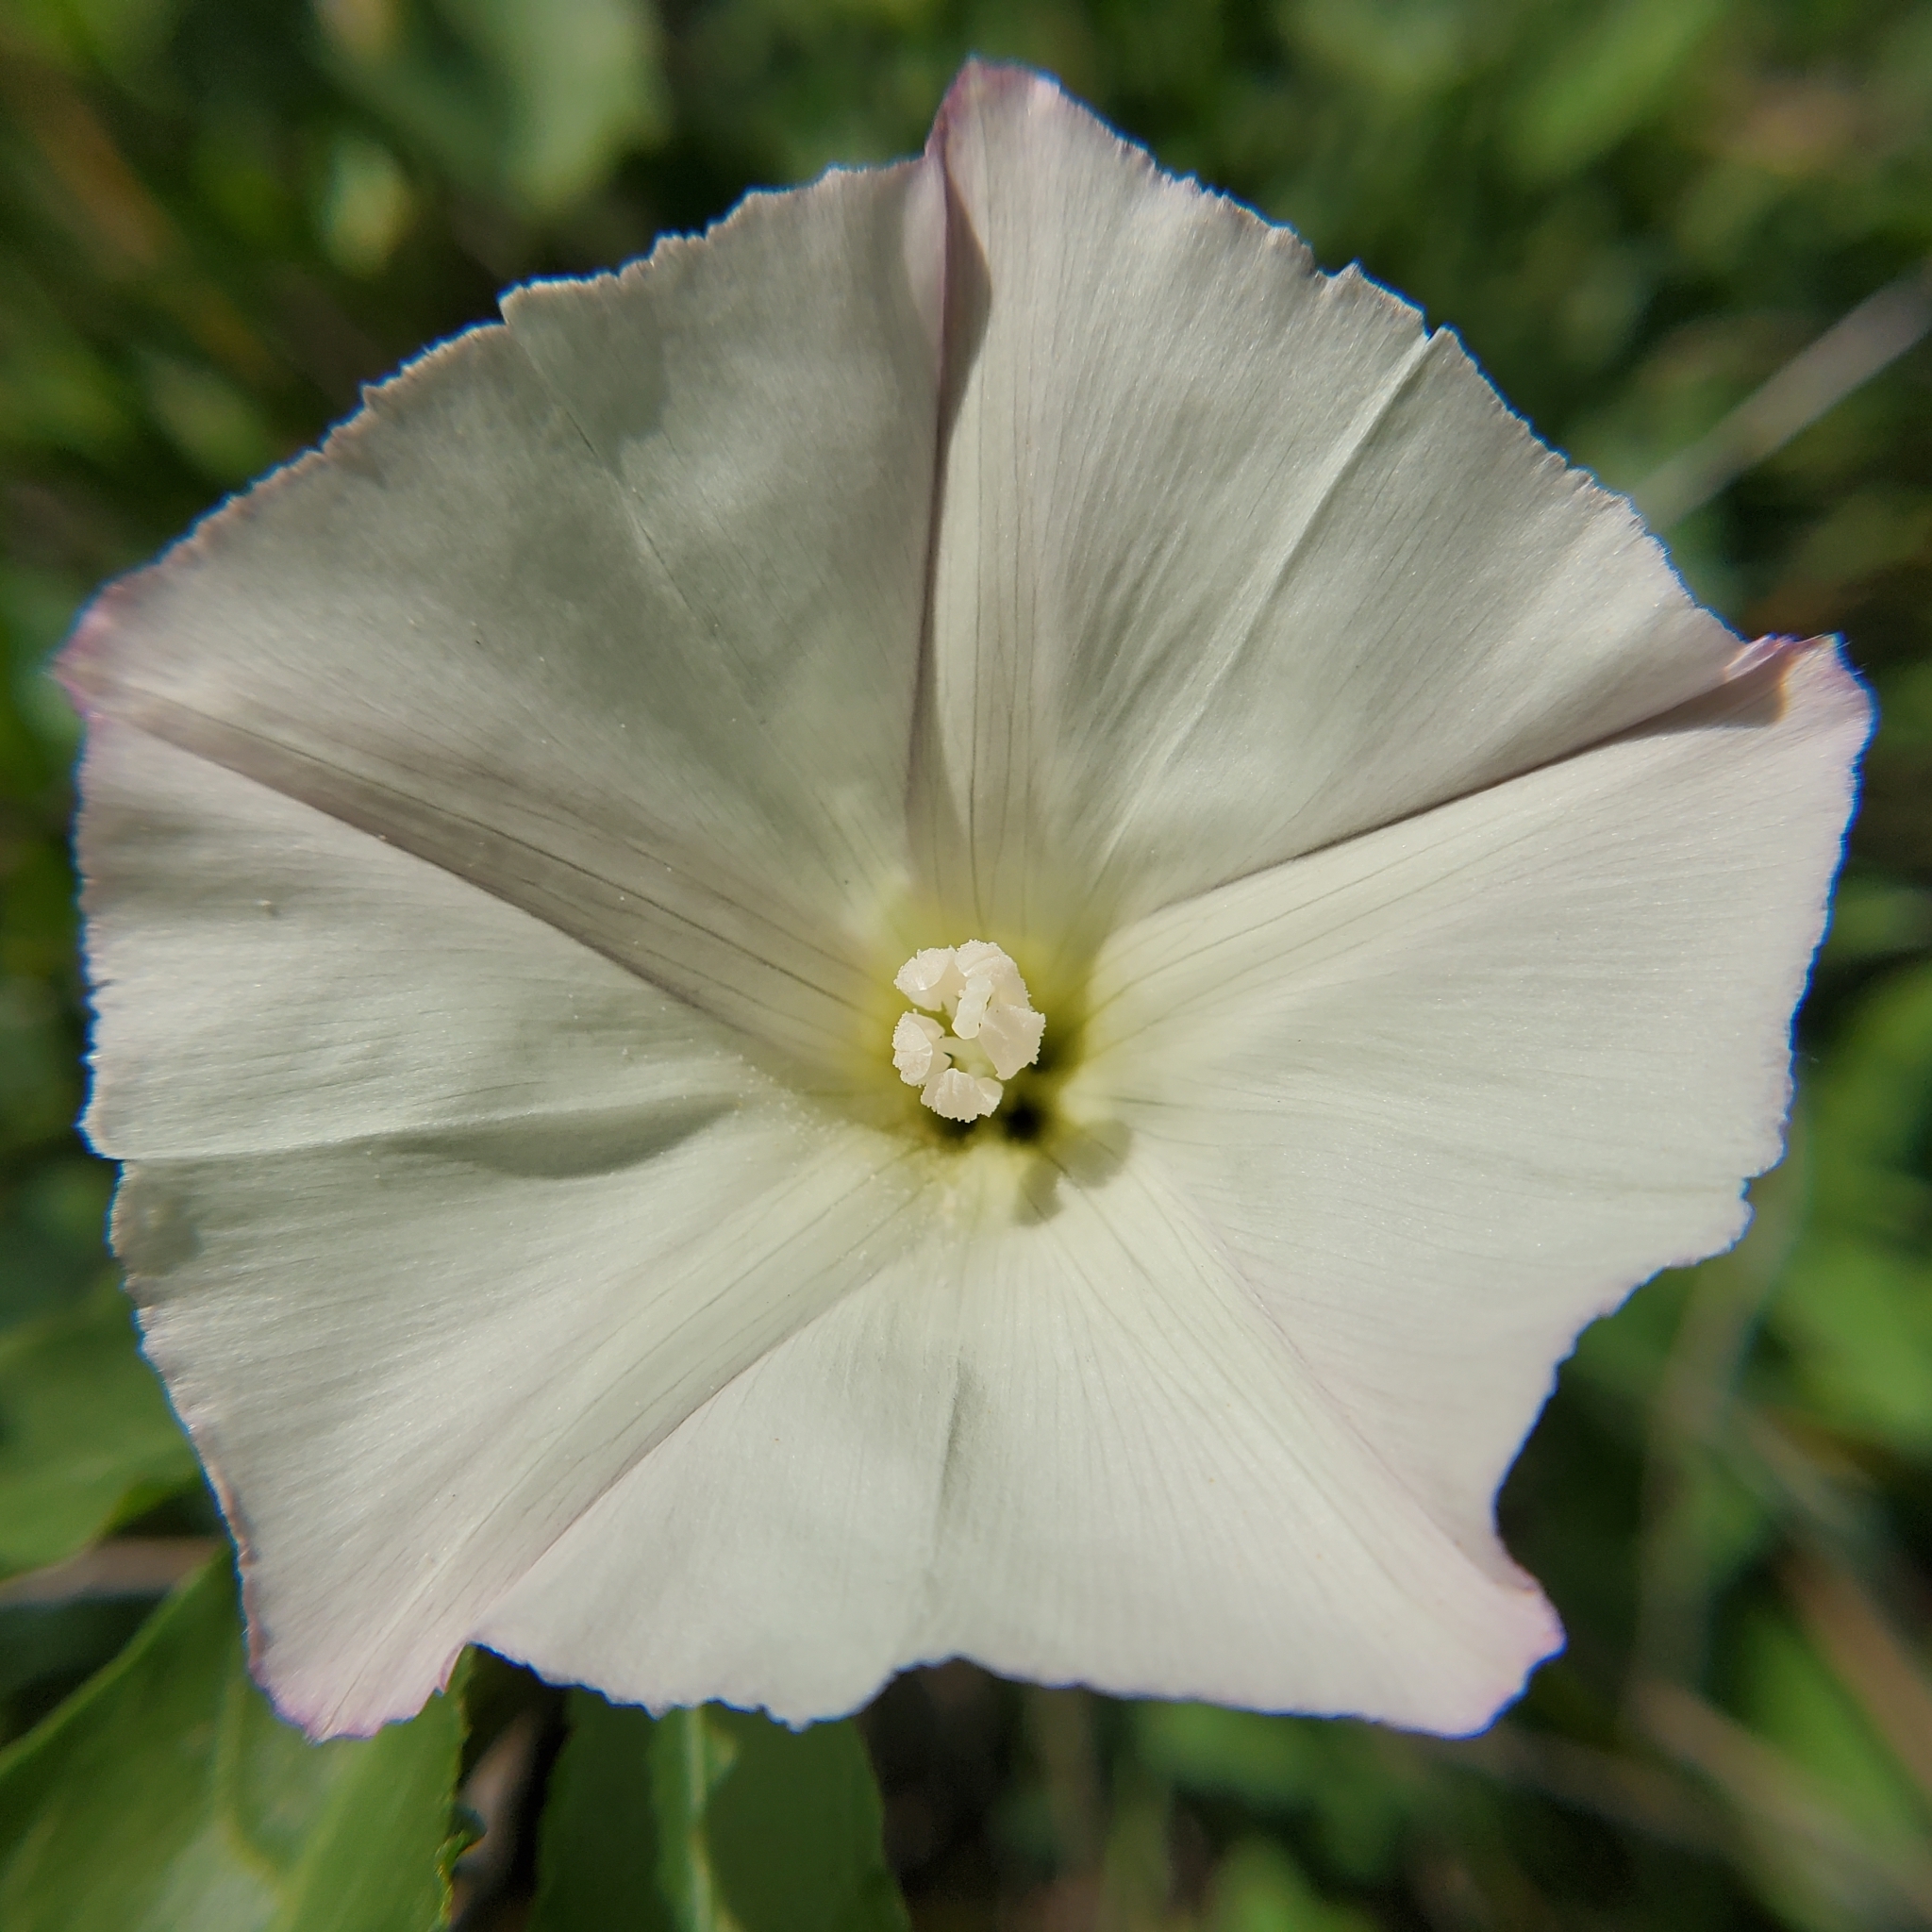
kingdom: Plantae
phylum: Tracheophyta
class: Magnoliopsida
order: Solanales
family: Convolvulaceae
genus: Calystegia
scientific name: Calystegia macrostegia
